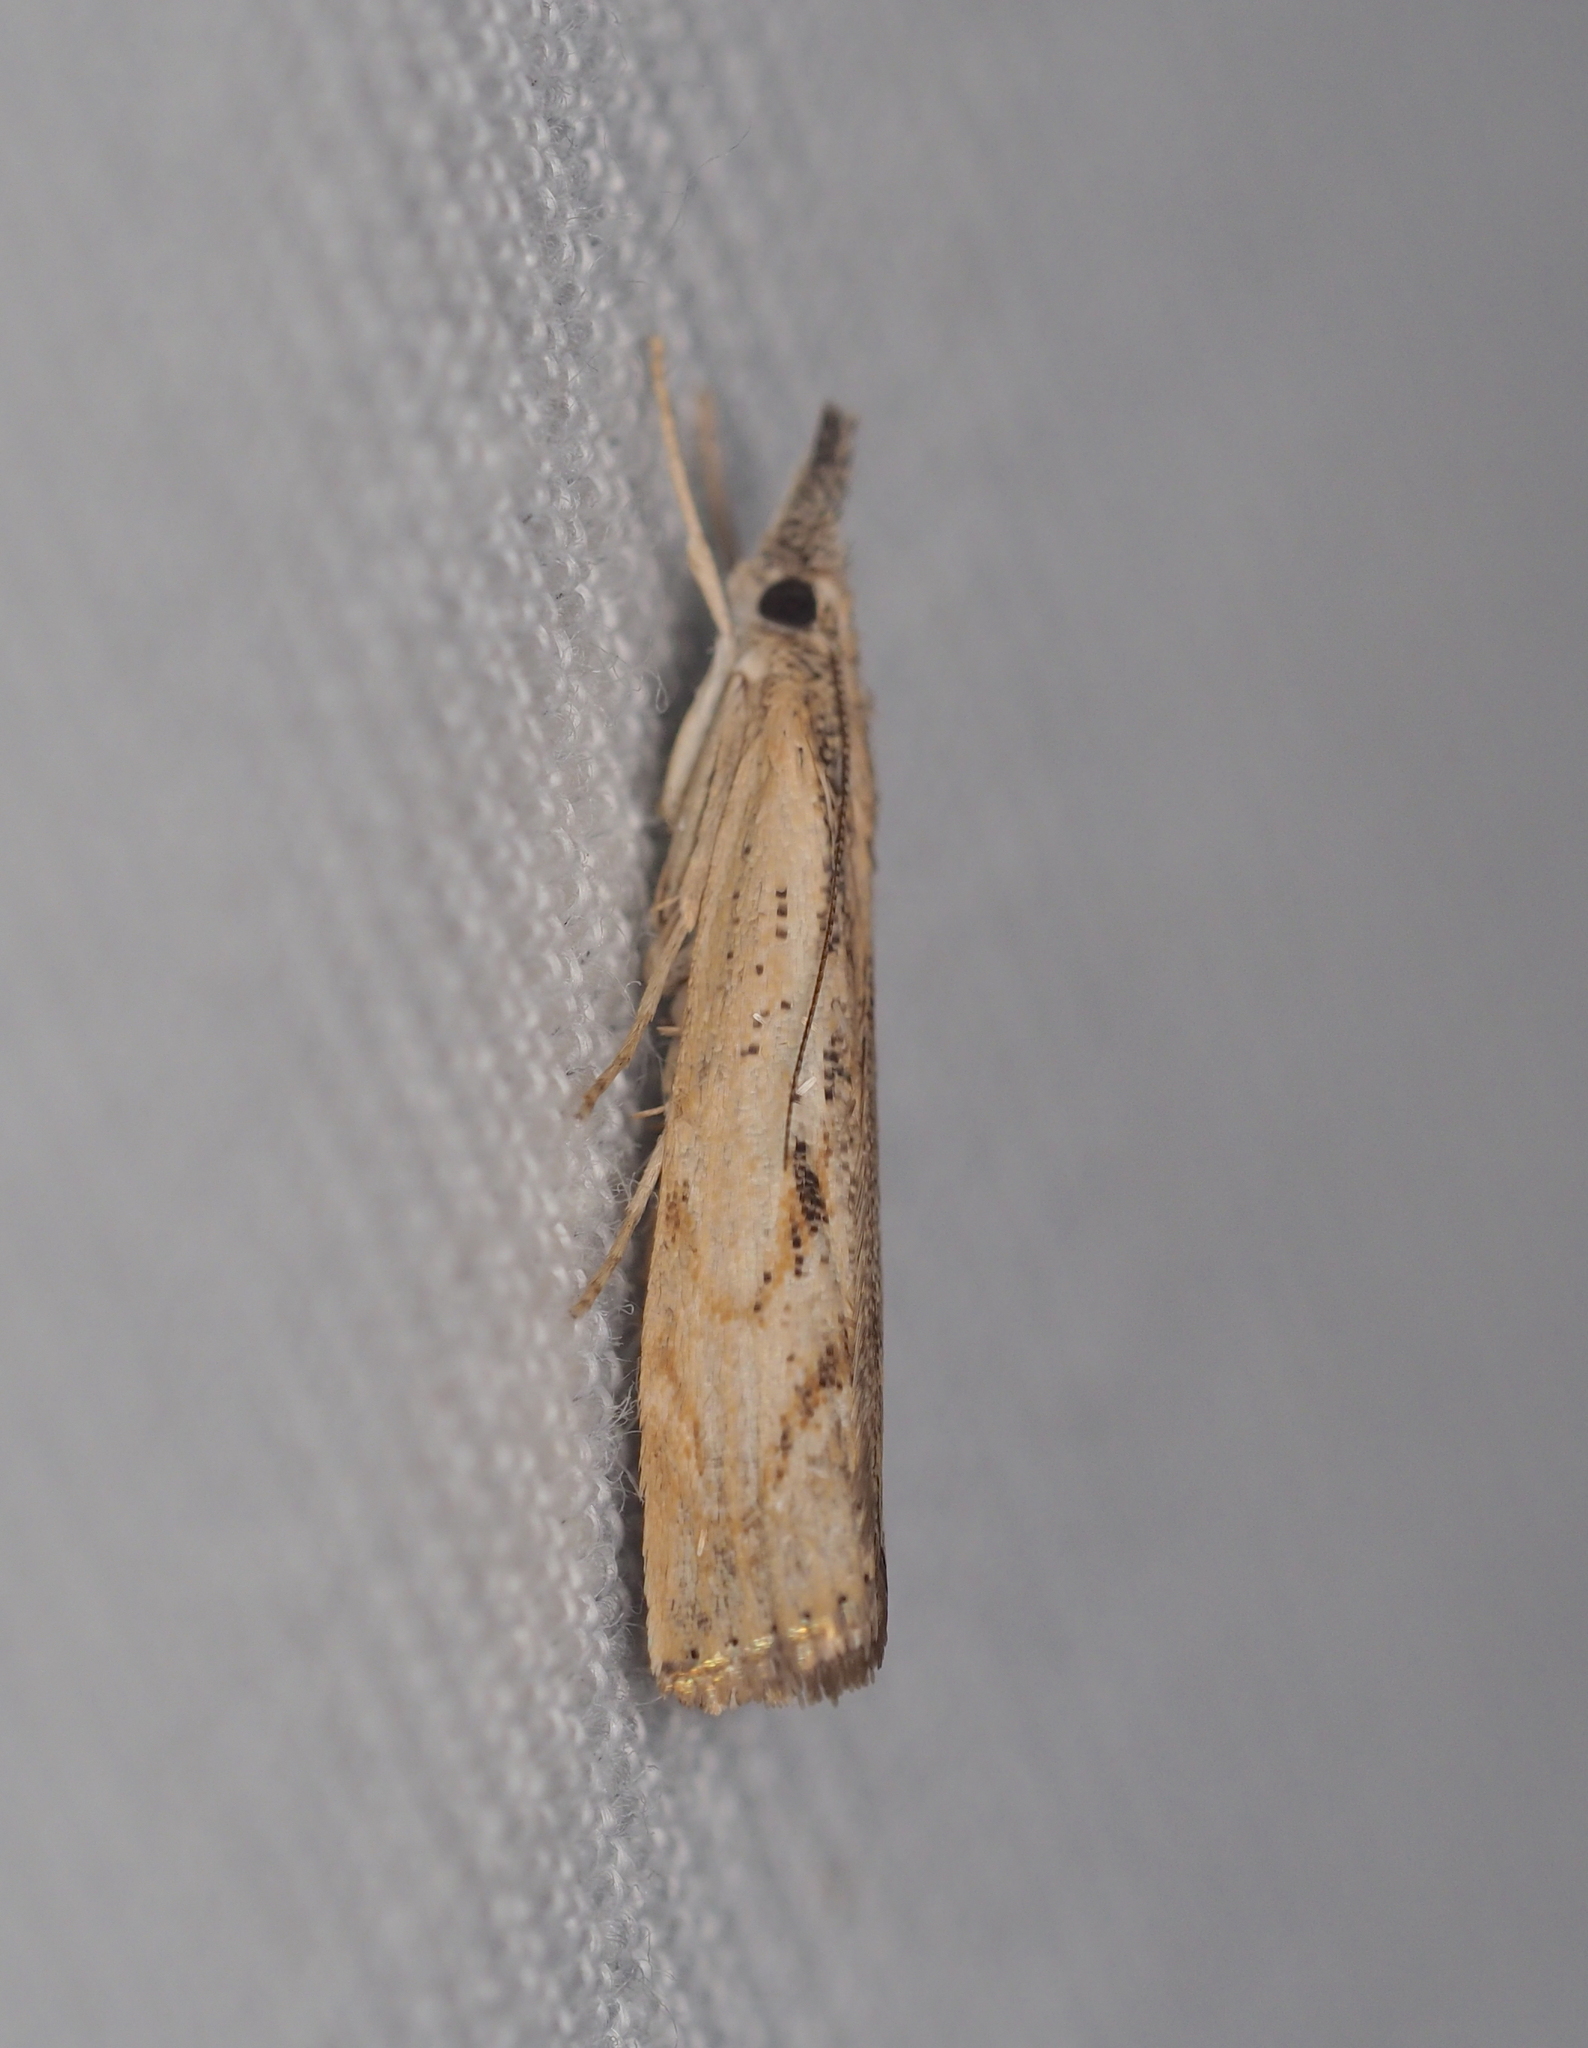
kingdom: Animalia
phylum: Arthropoda
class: Insecta
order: Lepidoptera
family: Crambidae
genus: Agriphila
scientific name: Agriphila geniculea
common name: Elbow-stripe grass-veneer
